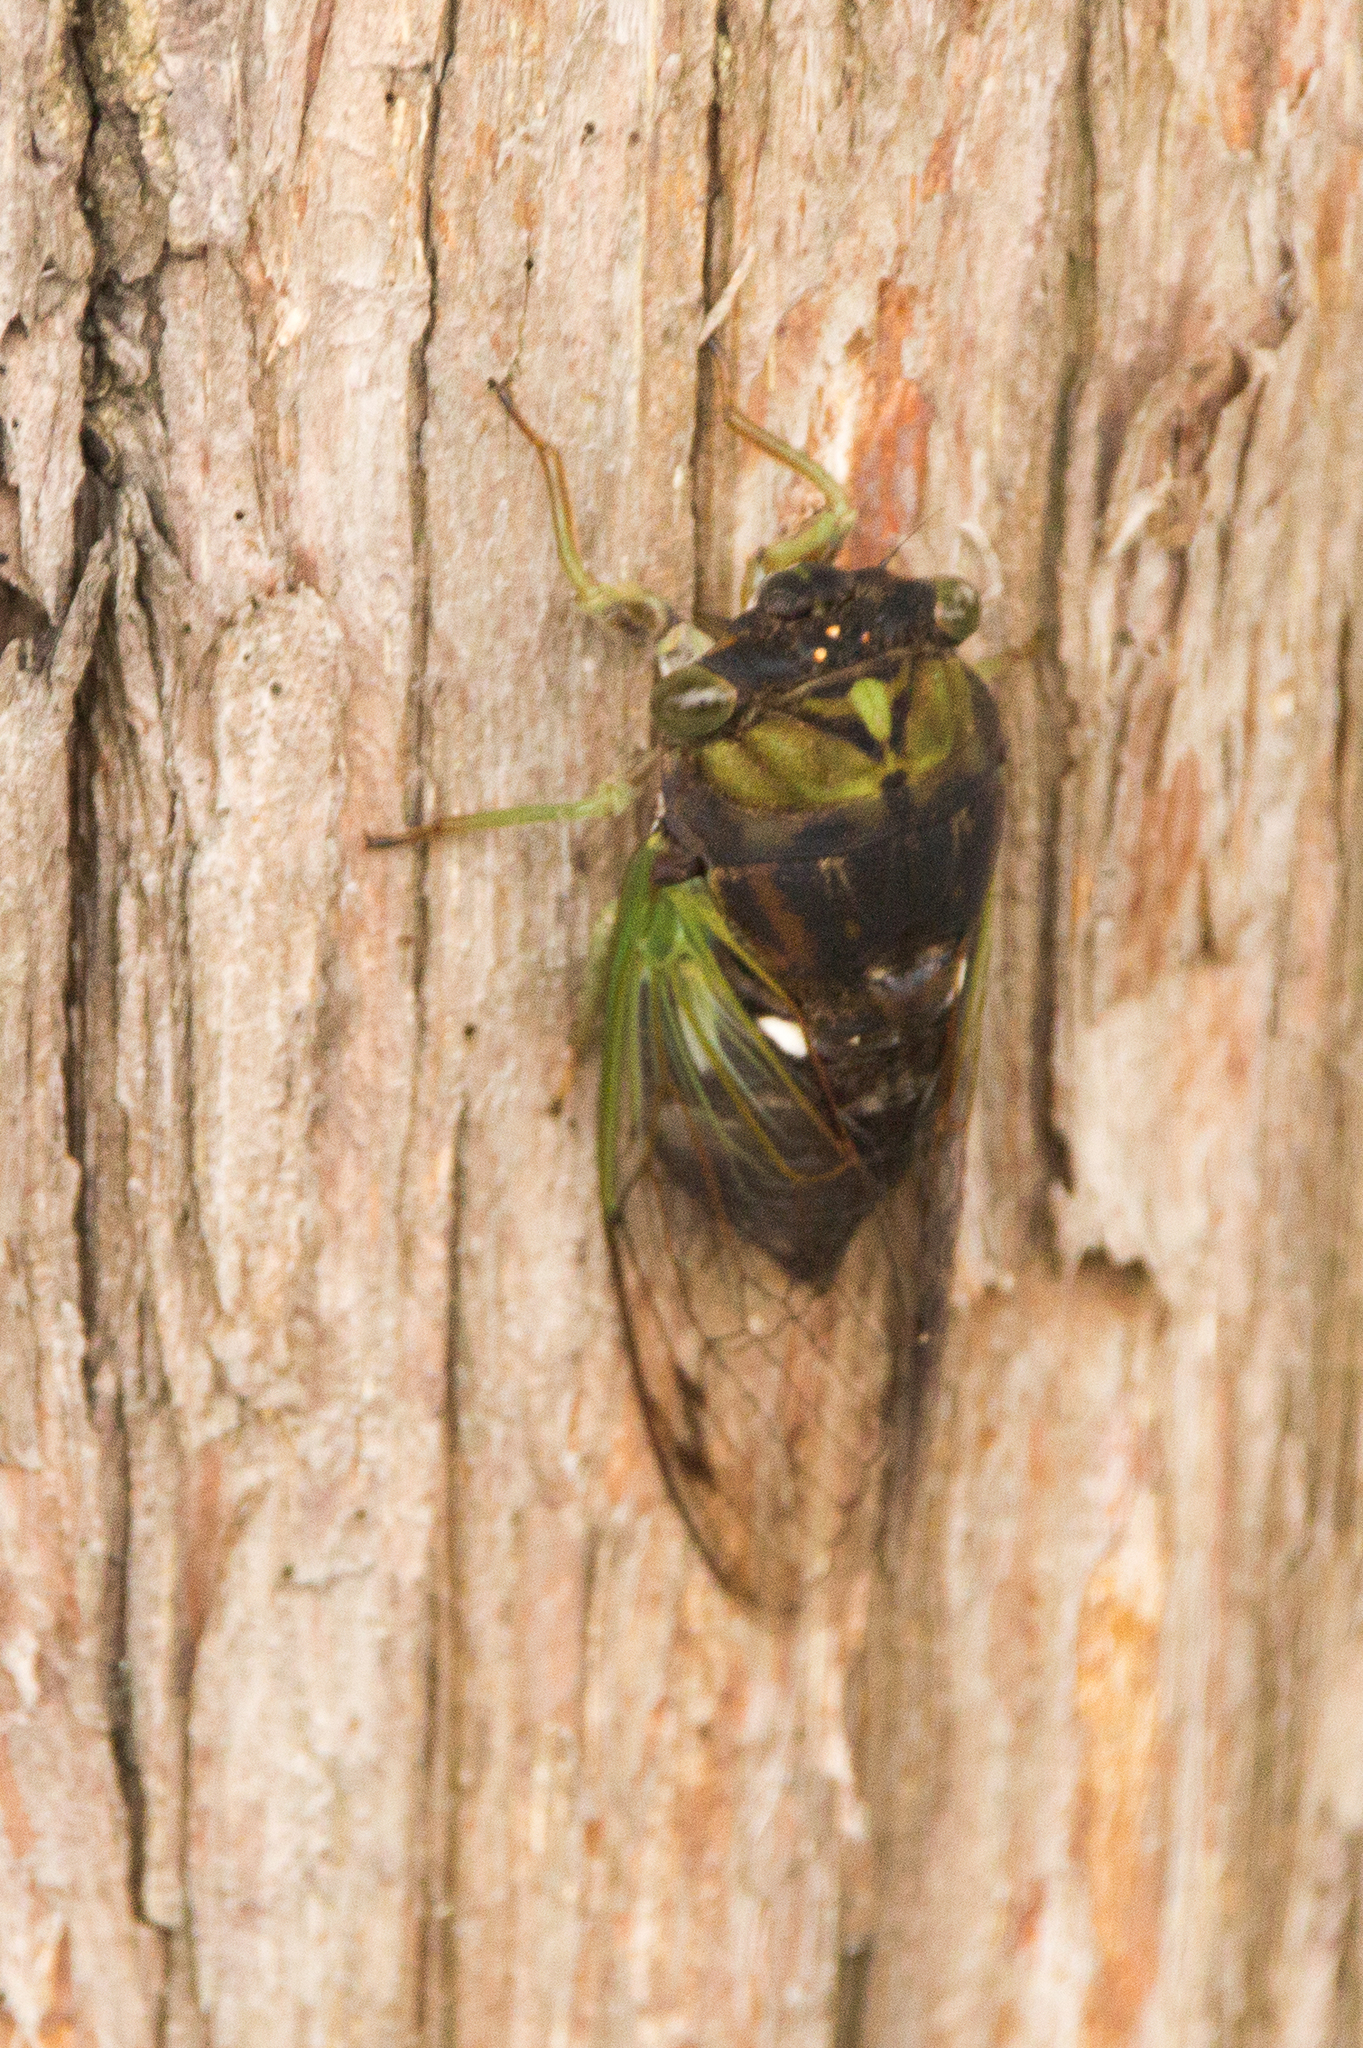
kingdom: Animalia
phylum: Arthropoda
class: Insecta
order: Hemiptera
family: Cicadidae
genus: Neotibicen
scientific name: Neotibicen tibicen
